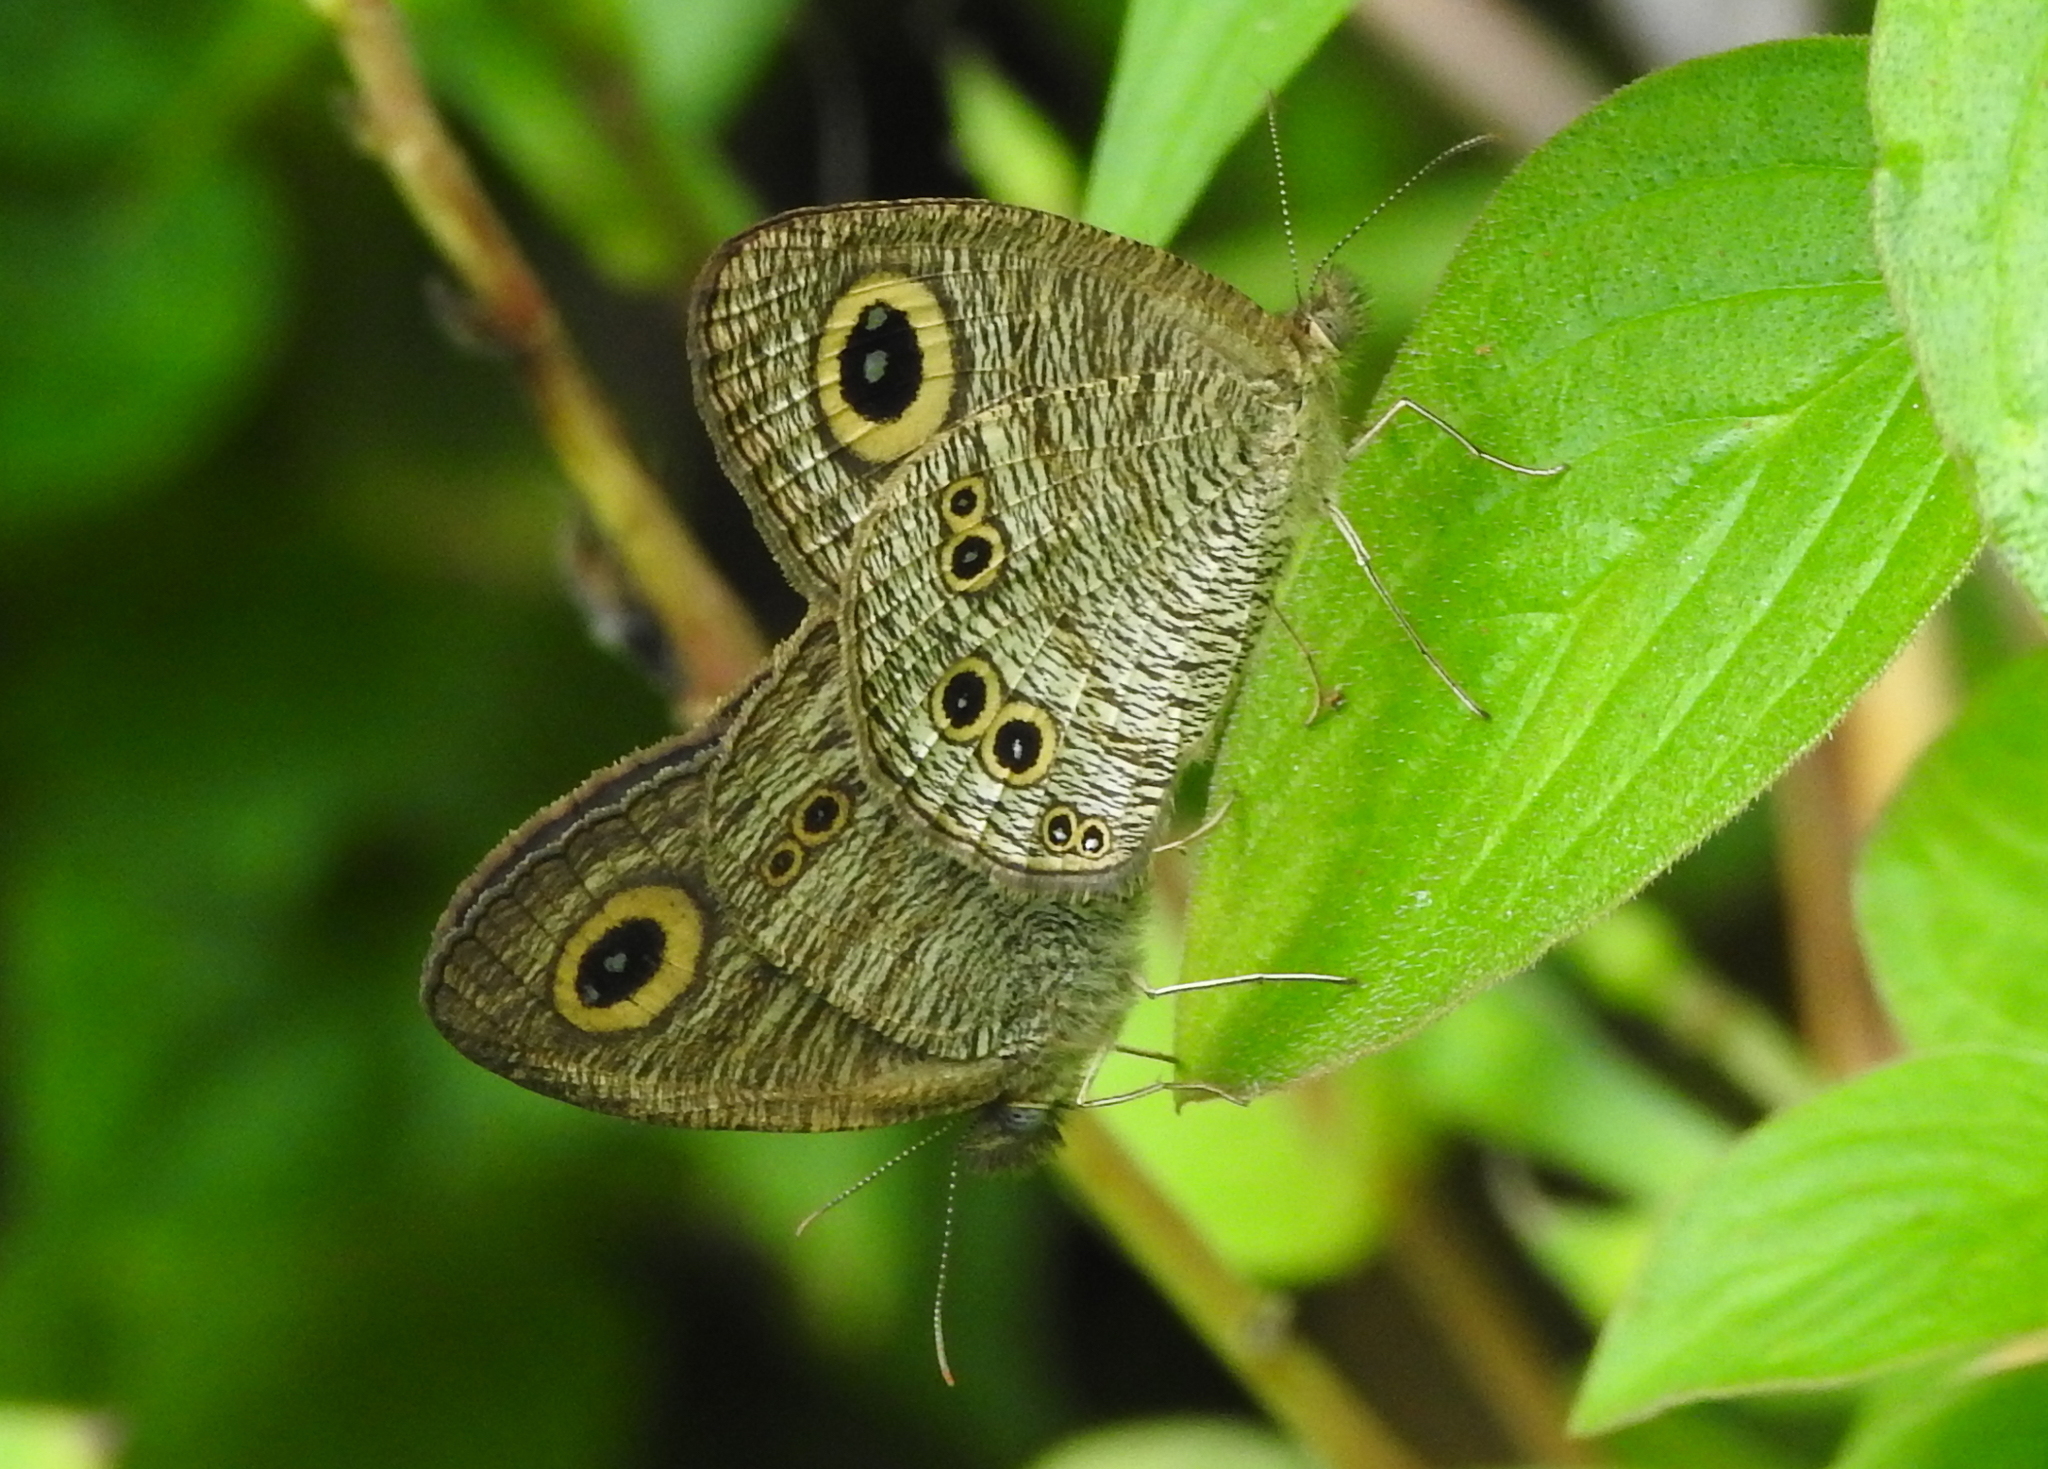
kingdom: Animalia
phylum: Arthropoda
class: Insecta
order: Lepidoptera
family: Nymphalidae
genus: Ypthima
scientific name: Ypthima baldus
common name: Common five-ring
